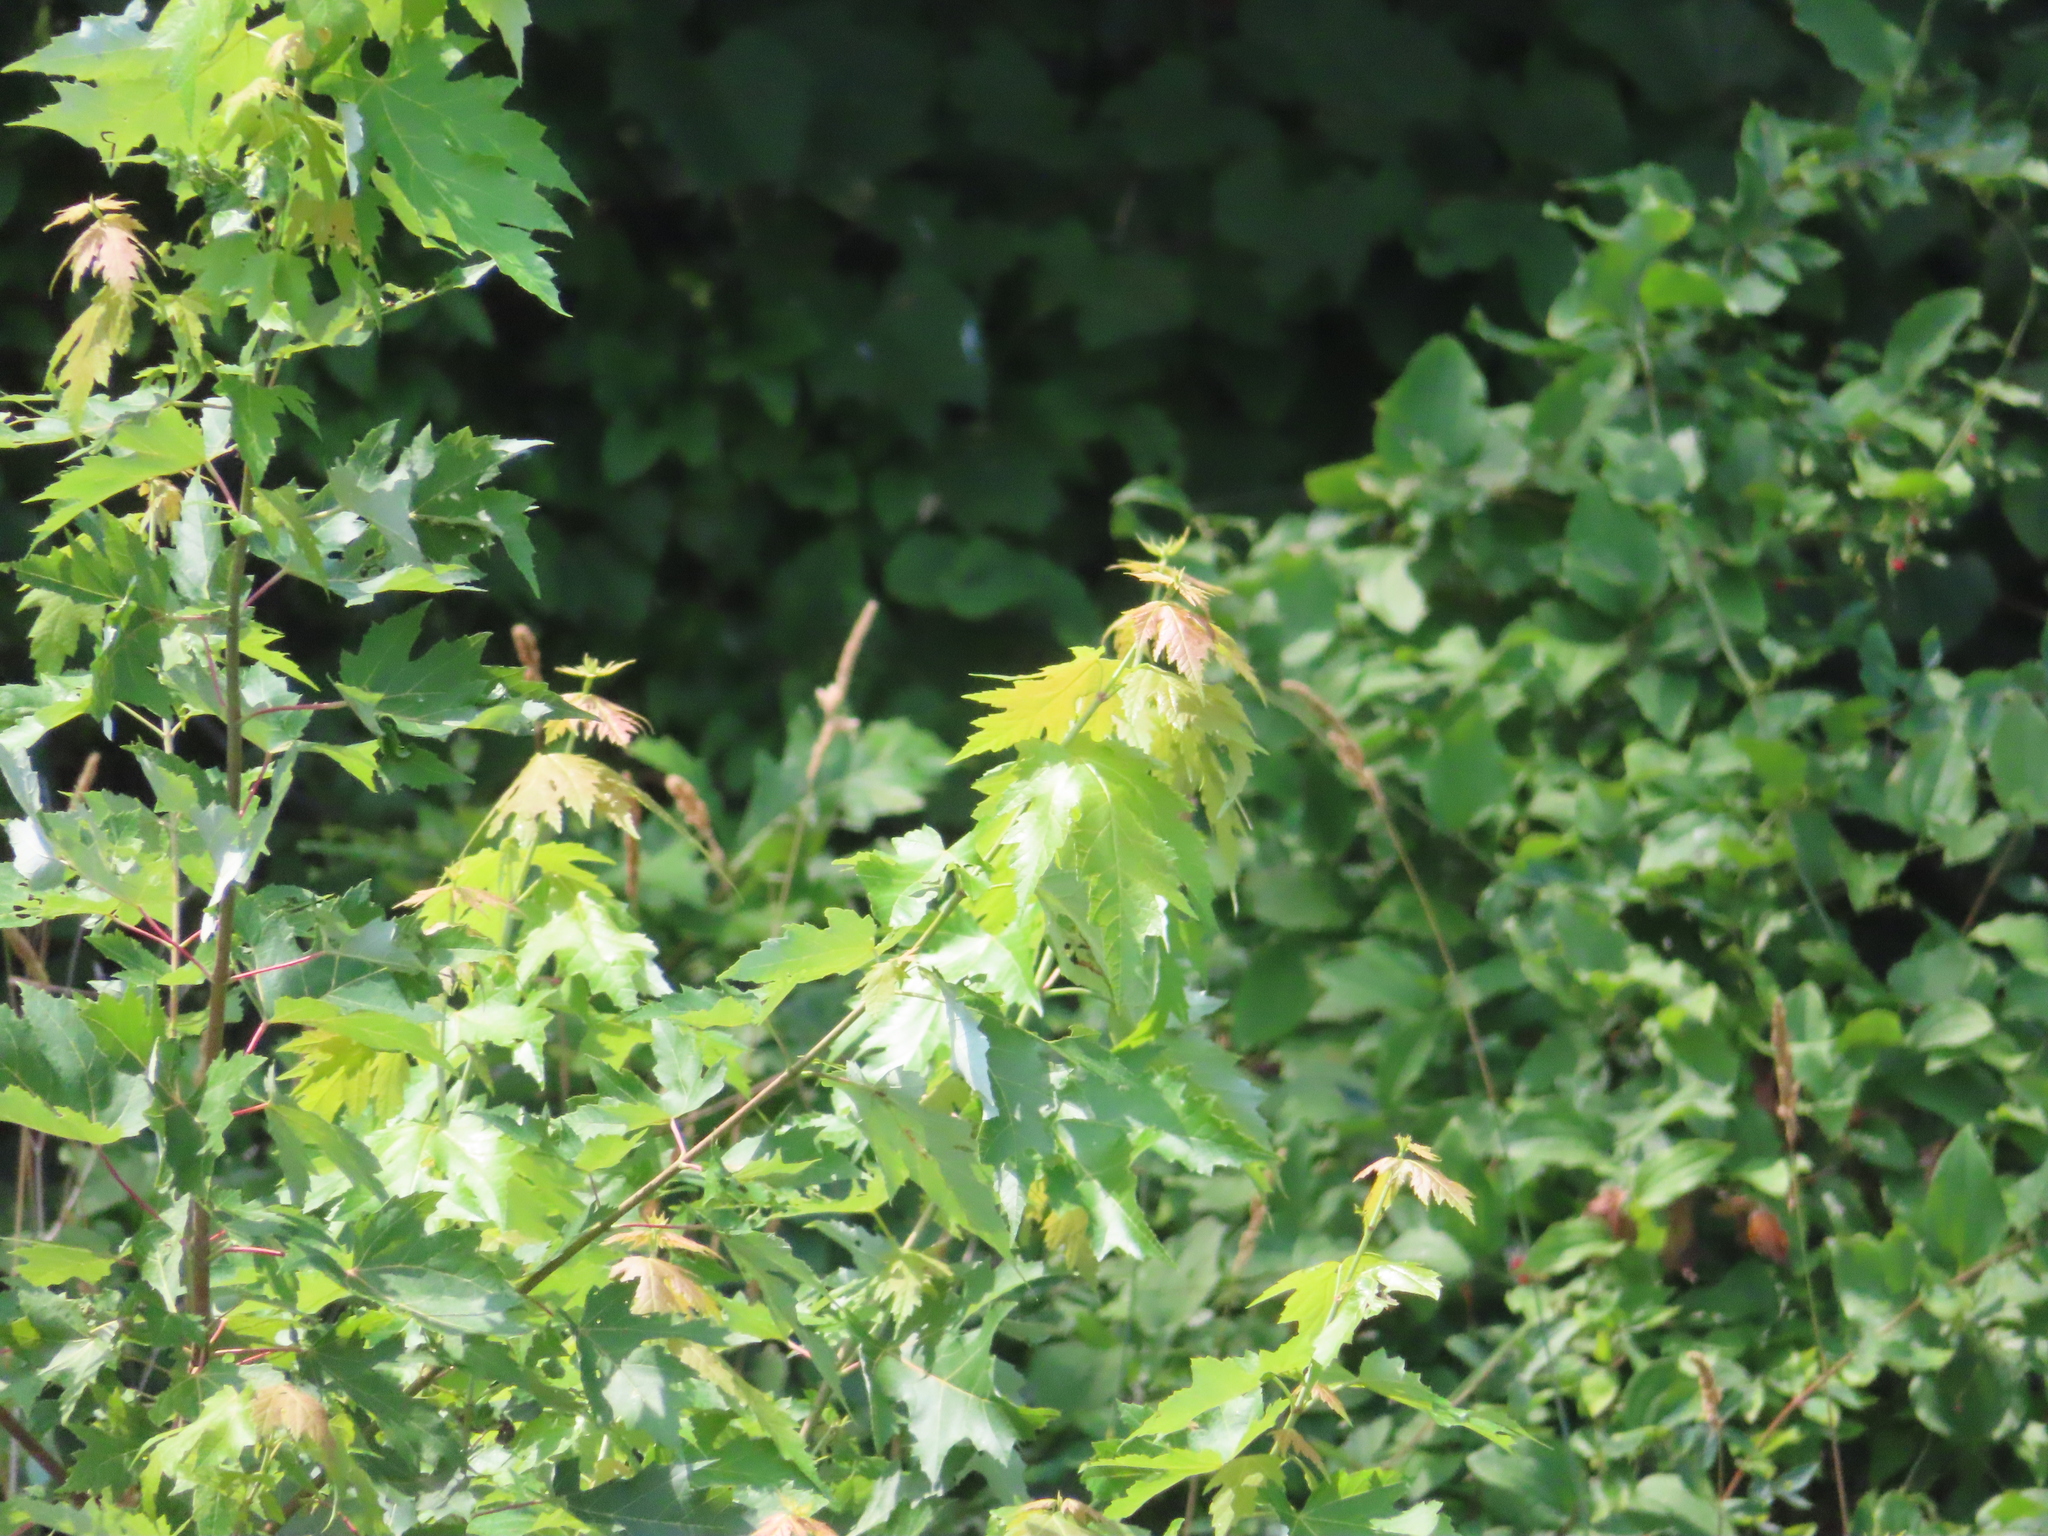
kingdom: Plantae
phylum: Tracheophyta
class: Magnoliopsida
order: Sapindales
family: Sapindaceae
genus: Acer
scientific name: Acer saccharinum
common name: Silver maple
